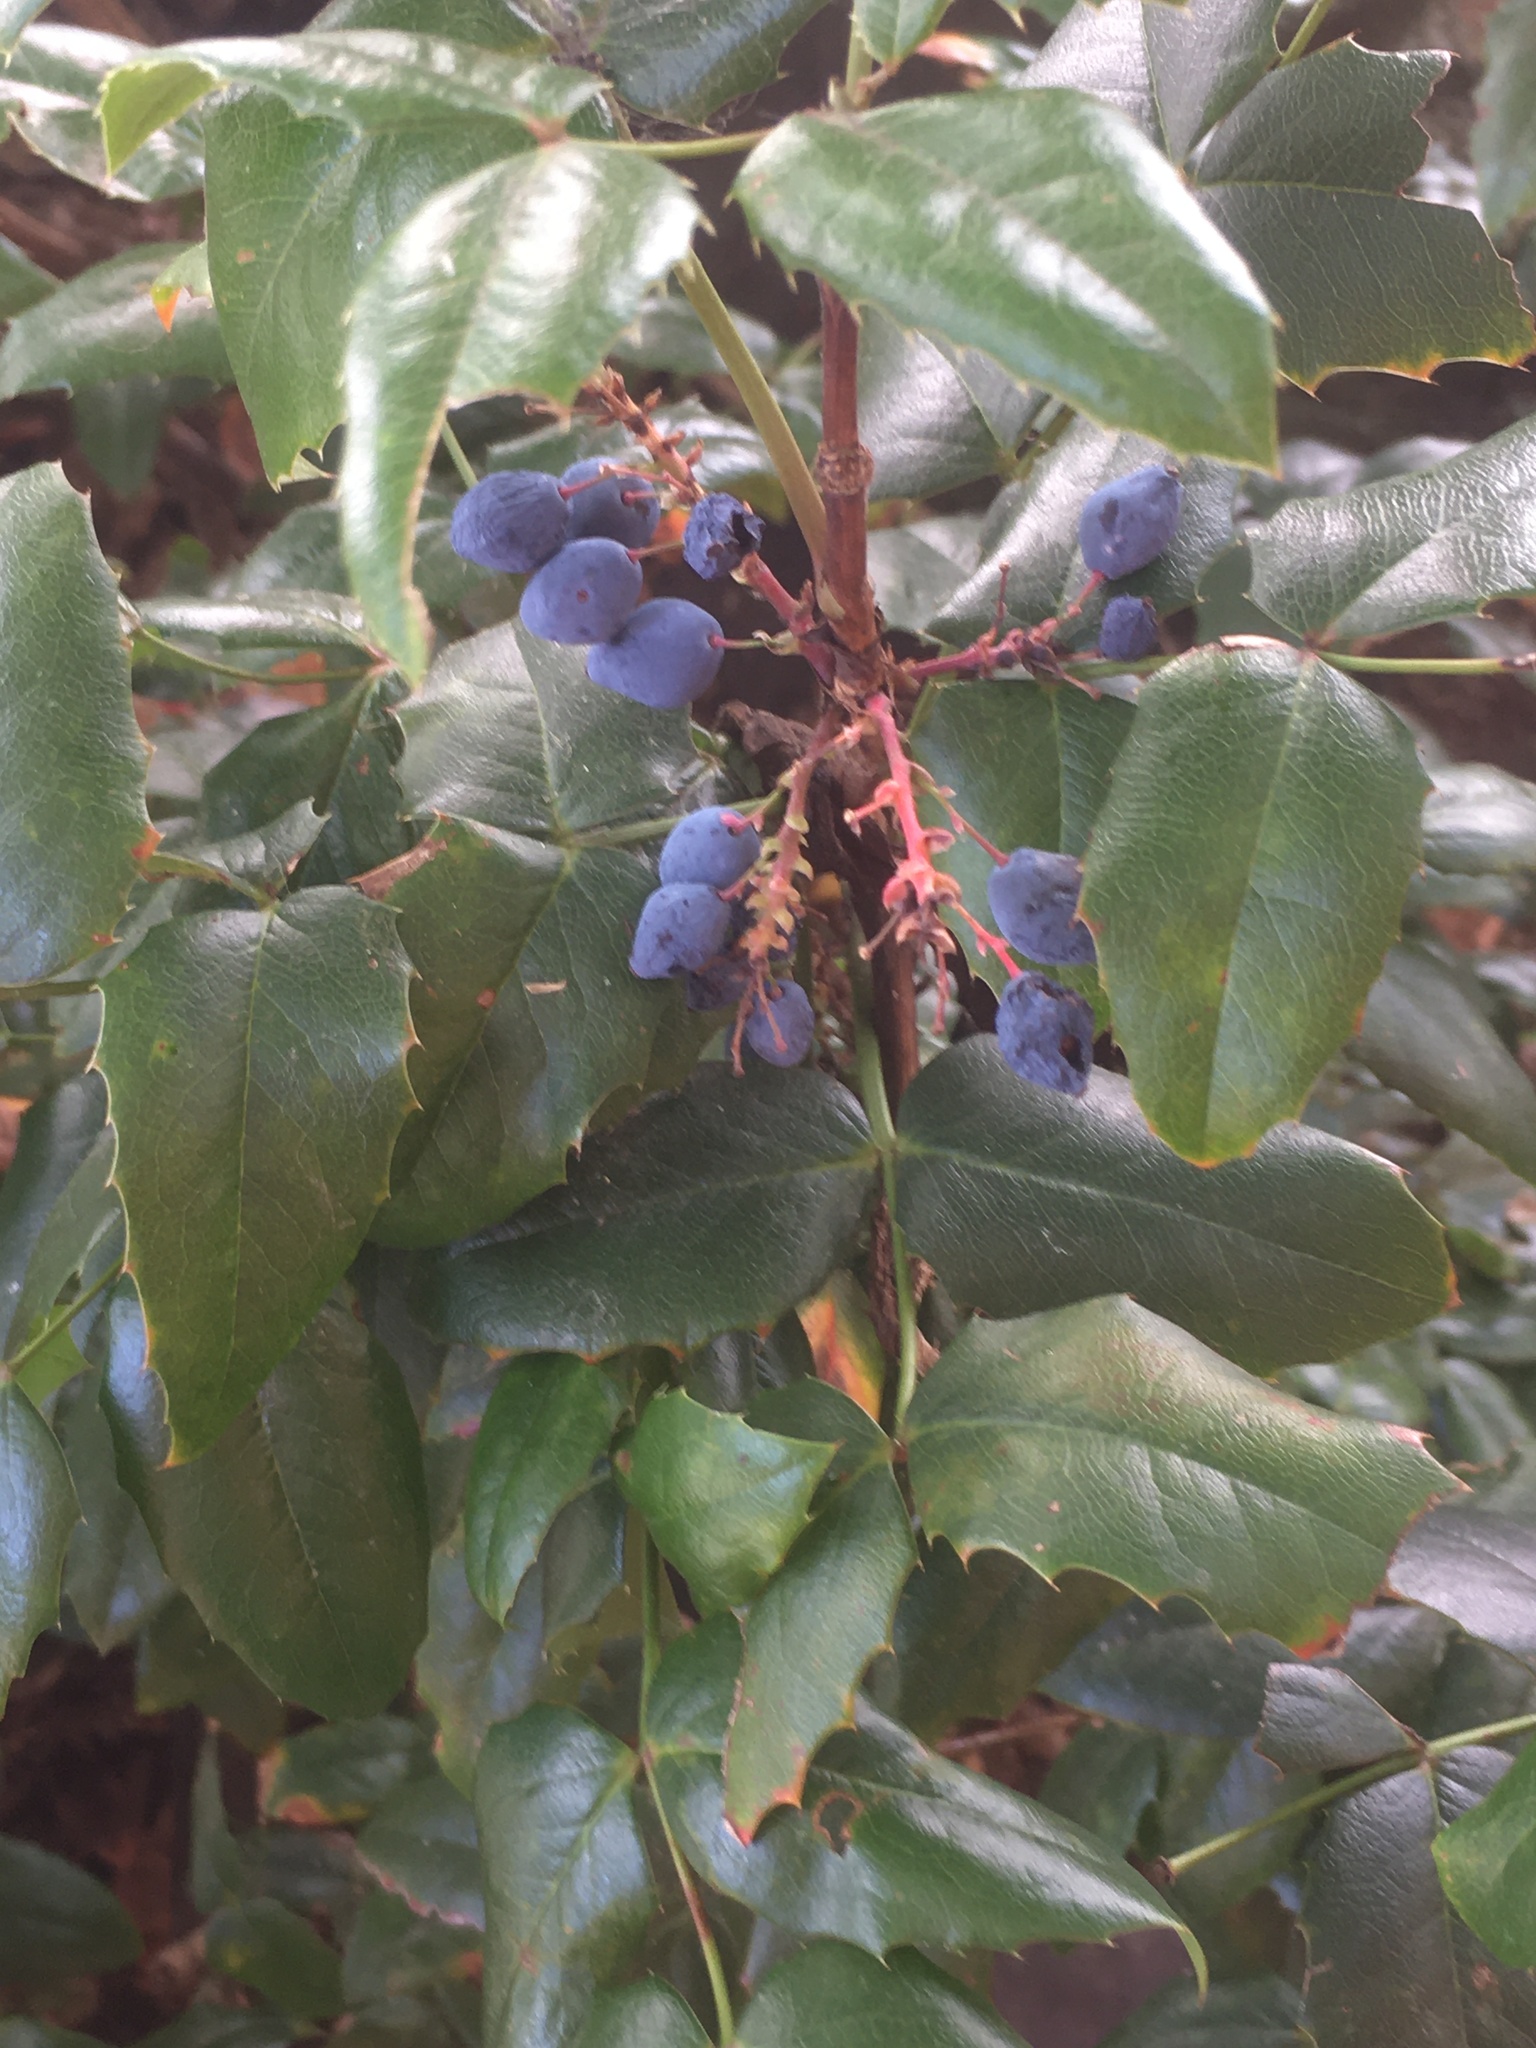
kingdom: Plantae
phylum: Tracheophyta
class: Magnoliopsida
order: Ranunculales
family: Berberidaceae
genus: Mahonia
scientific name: Mahonia aquifolium
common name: Oregon-grape
